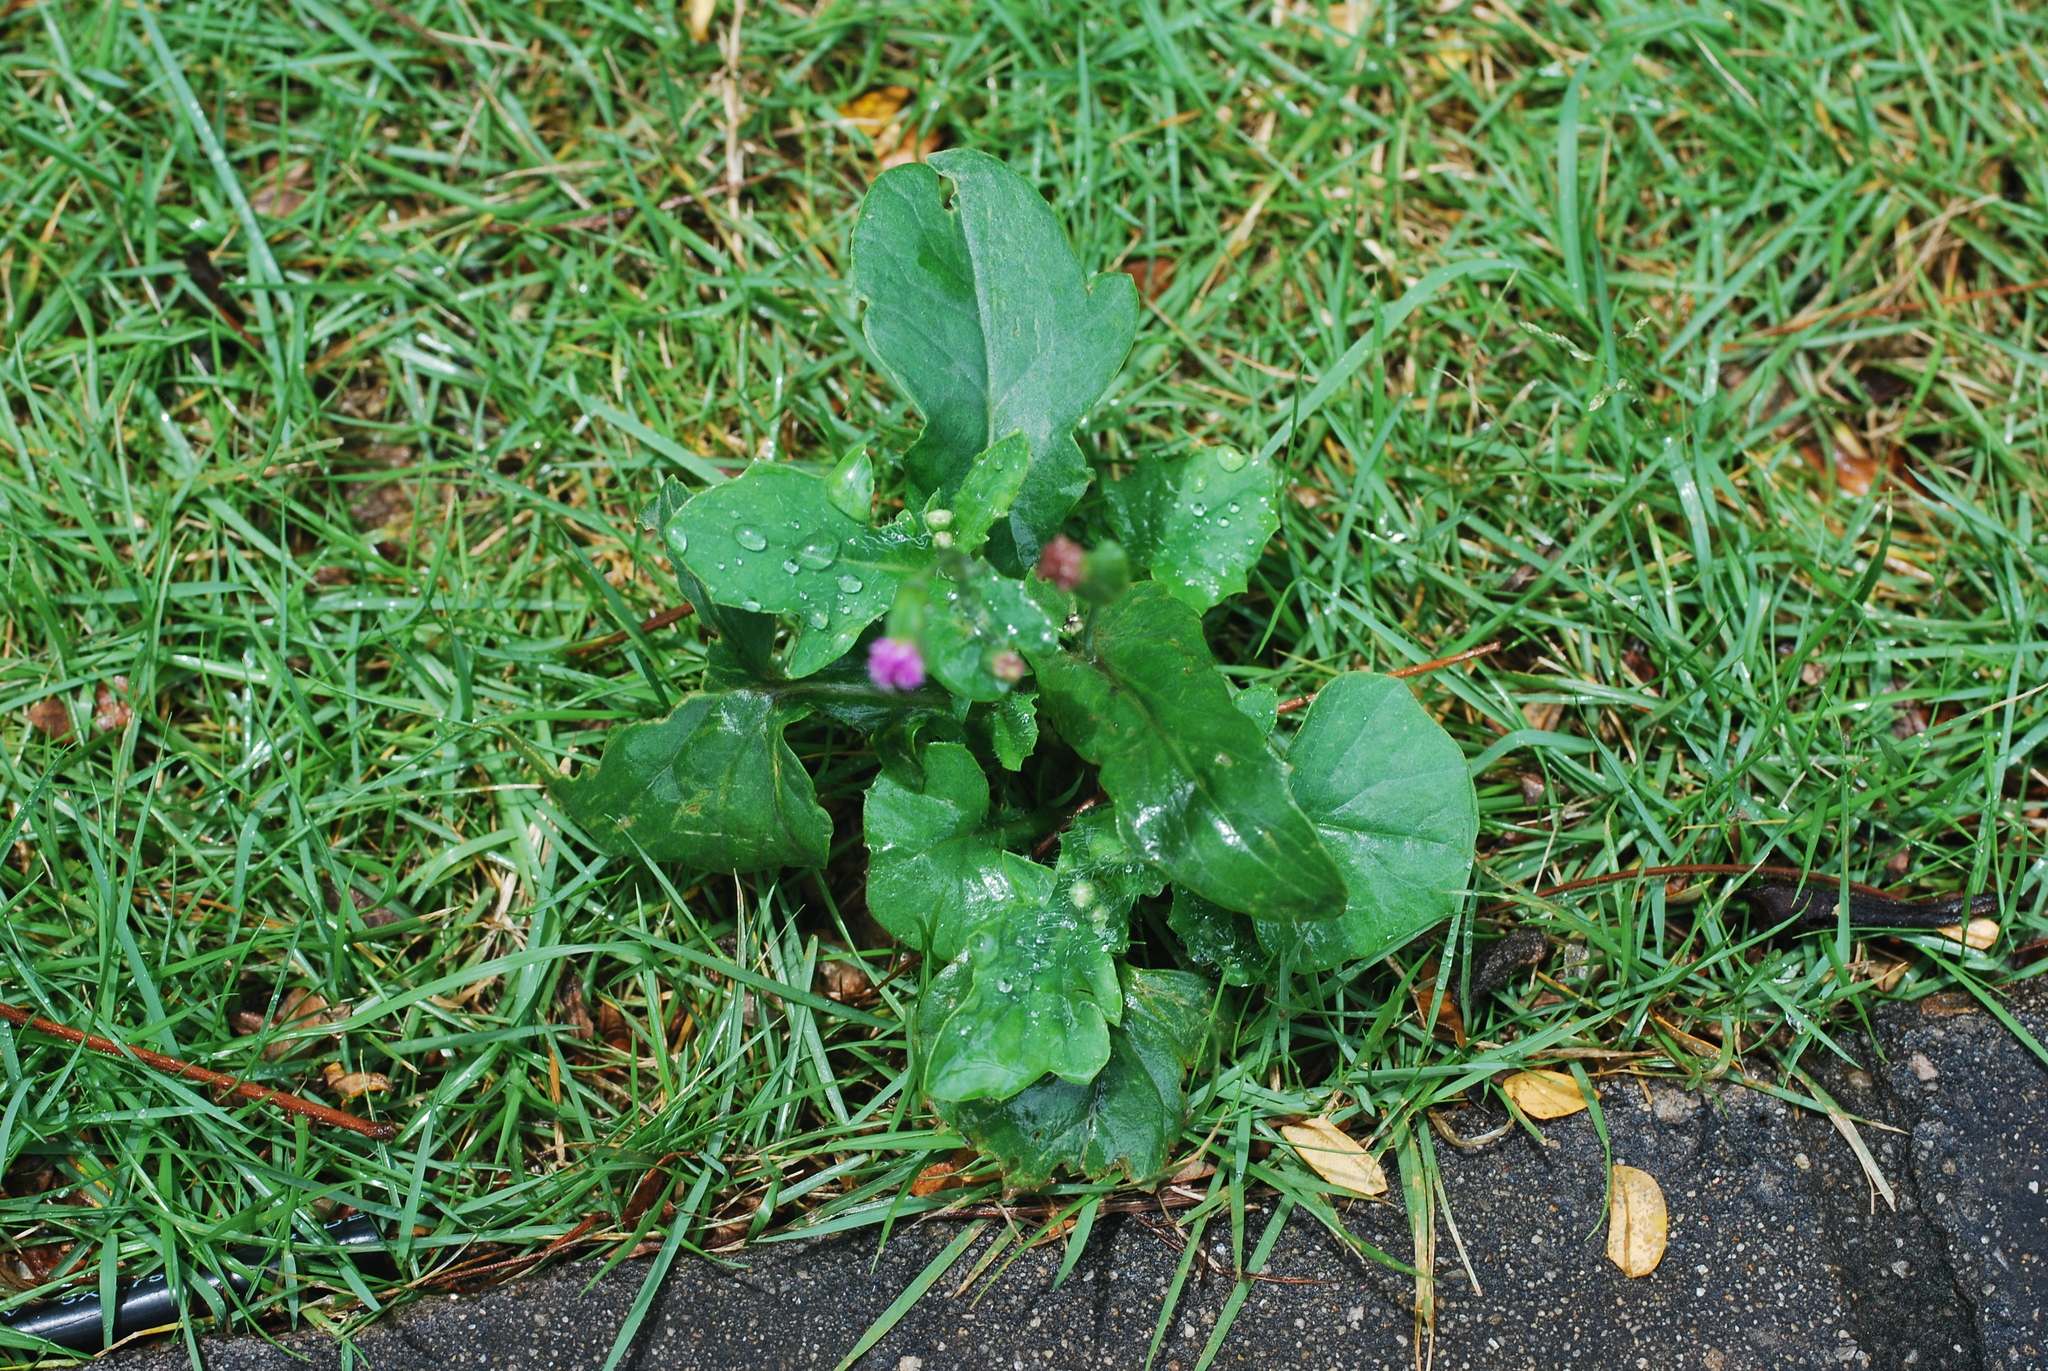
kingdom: Plantae
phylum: Tracheophyta
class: Magnoliopsida
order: Asterales
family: Asteraceae
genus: Emilia
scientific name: Emilia sonchifolia
